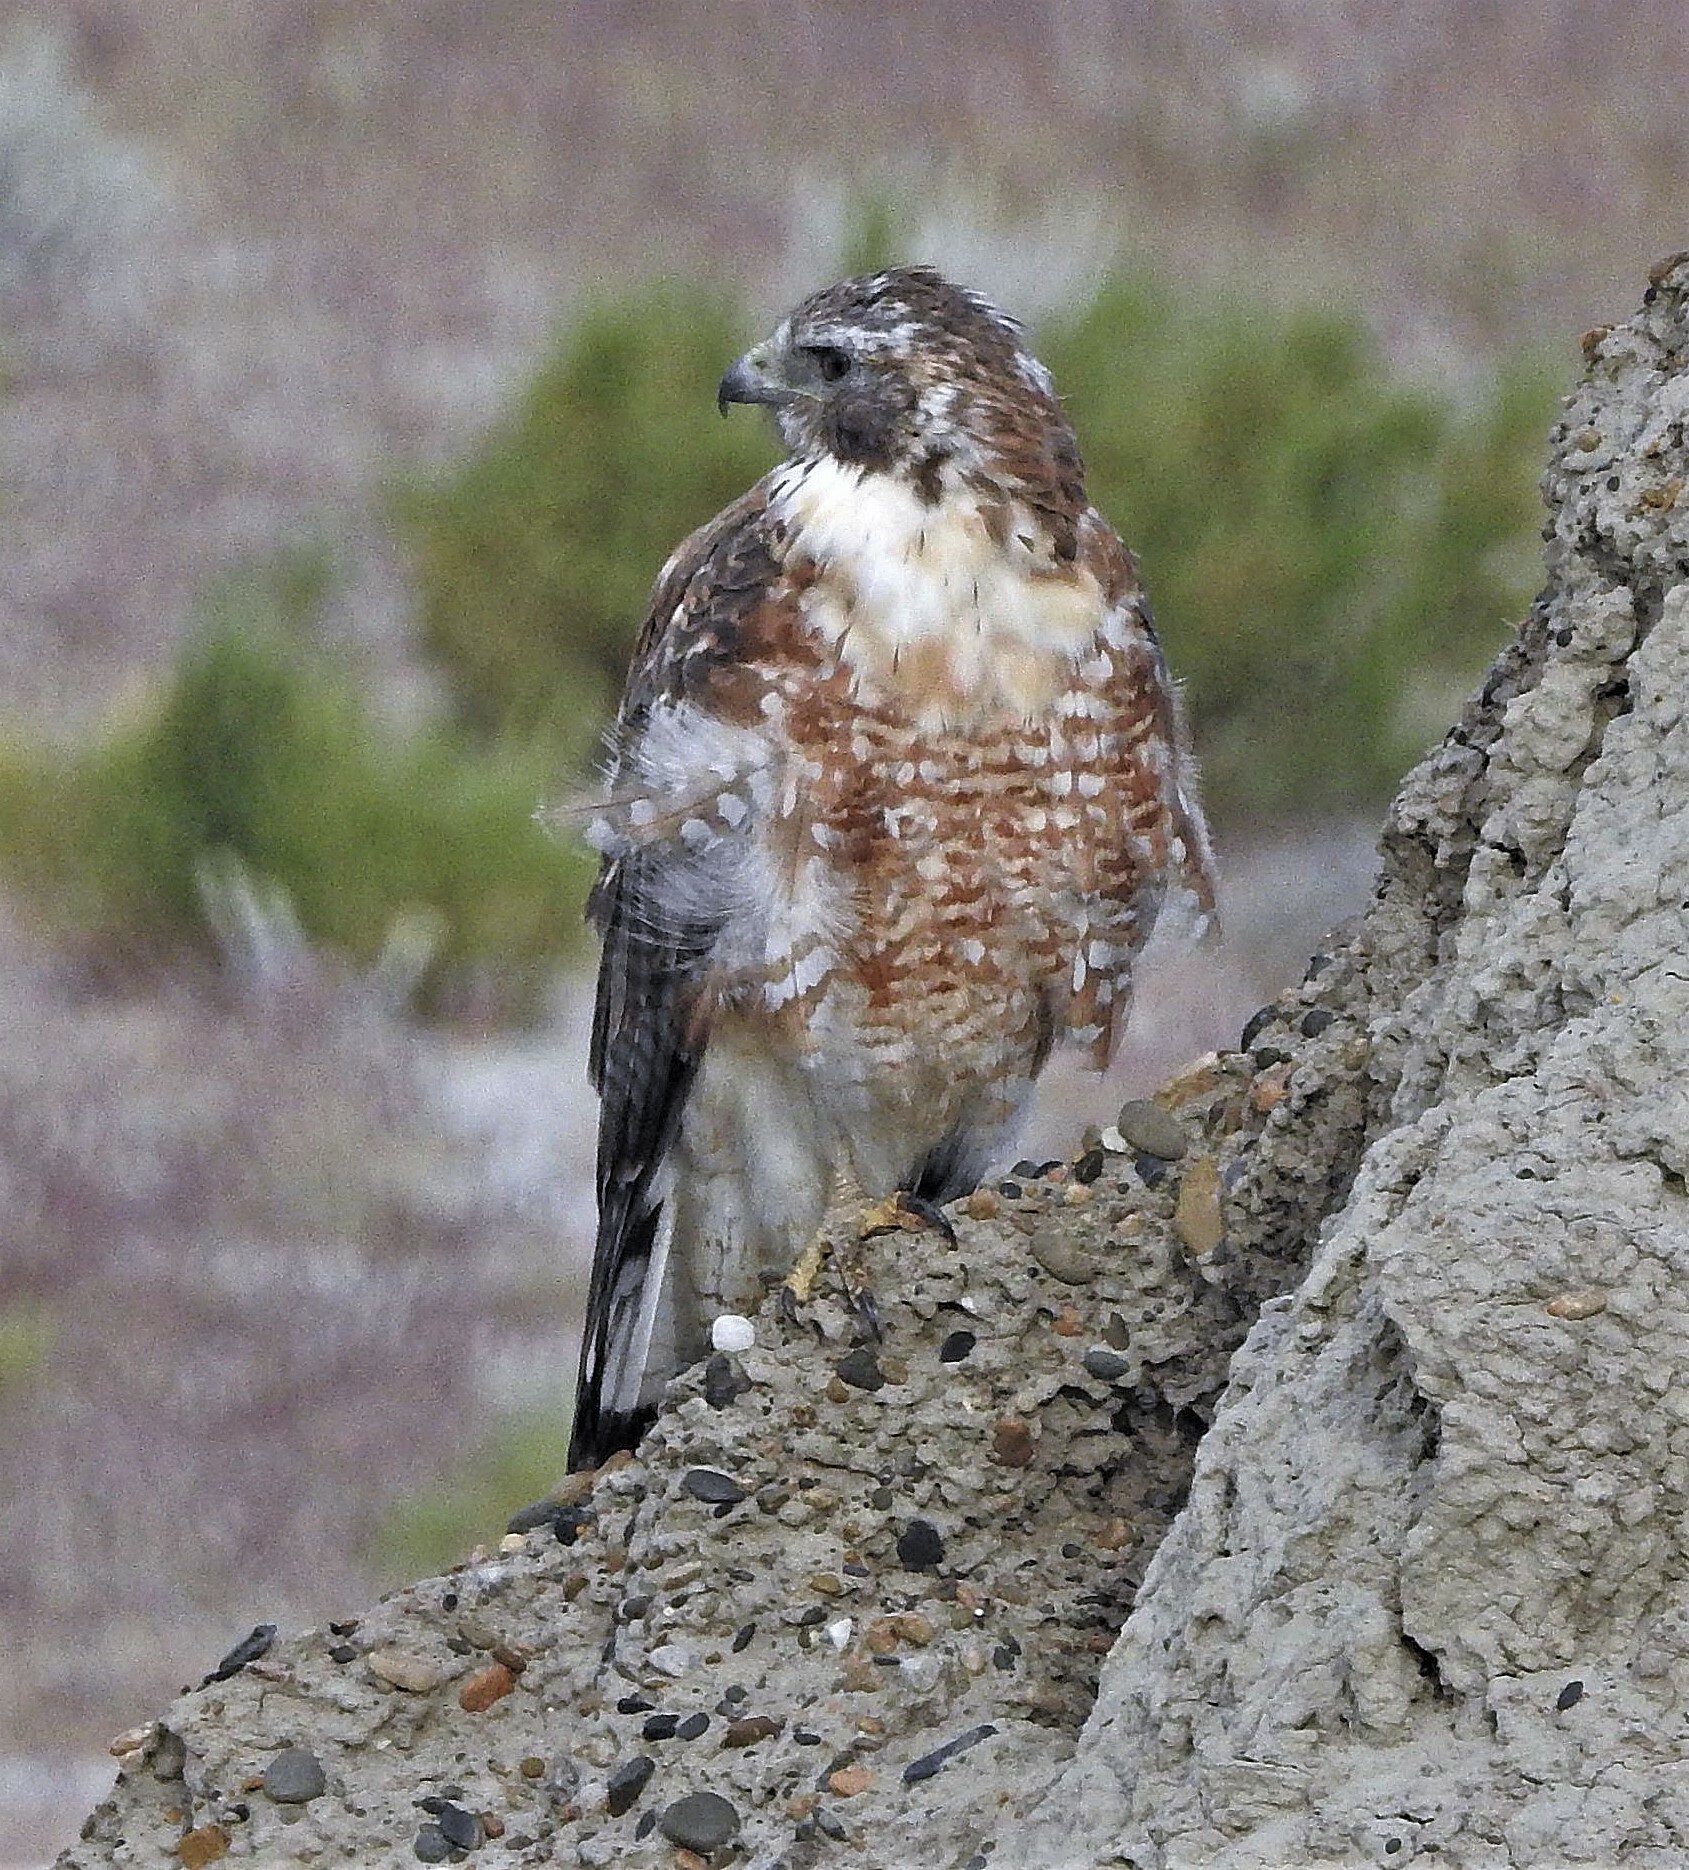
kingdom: Animalia
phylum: Chordata
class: Aves
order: Accipitriformes
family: Accipitridae
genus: Buteo
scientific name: Buteo polyosoma
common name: Variable hawk
